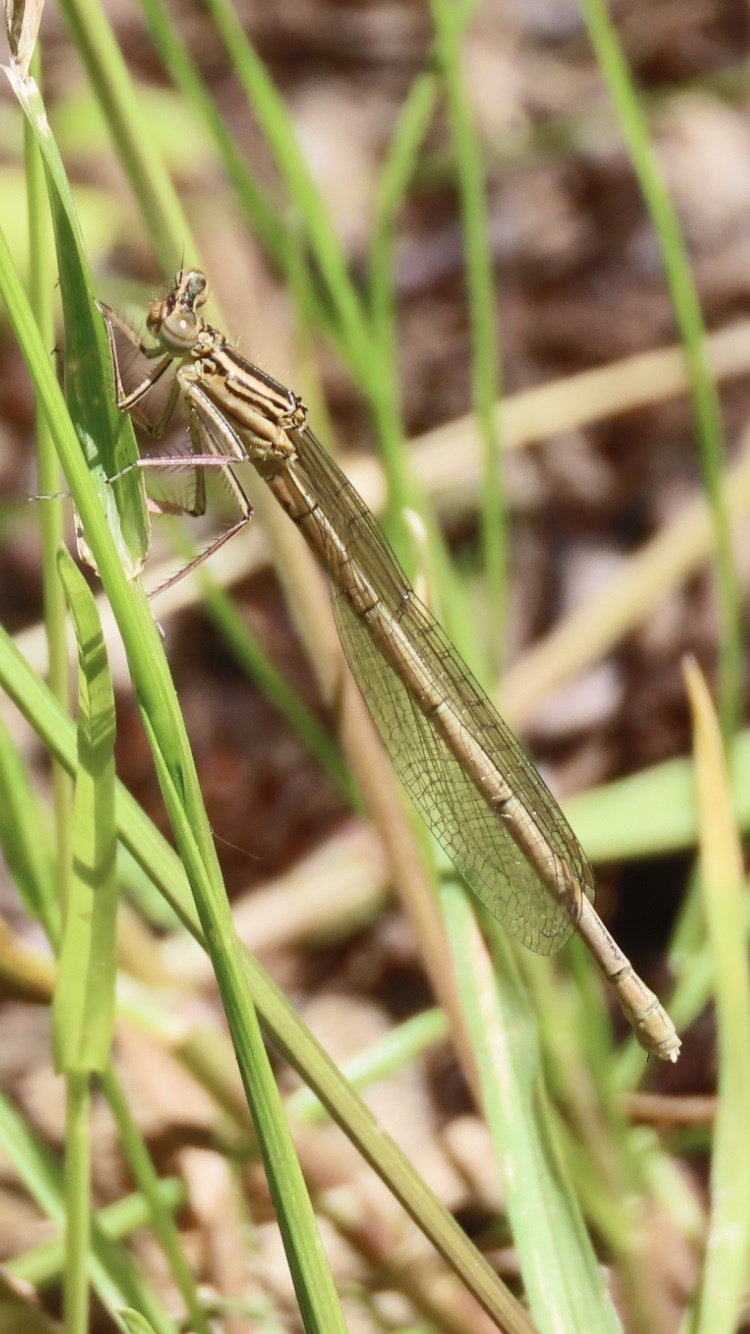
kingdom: Animalia
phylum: Arthropoda
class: Insecta
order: Odonata
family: Platycnemididae
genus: Platycnemis
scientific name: Platycnemis pennipes
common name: White-legged damselfly
